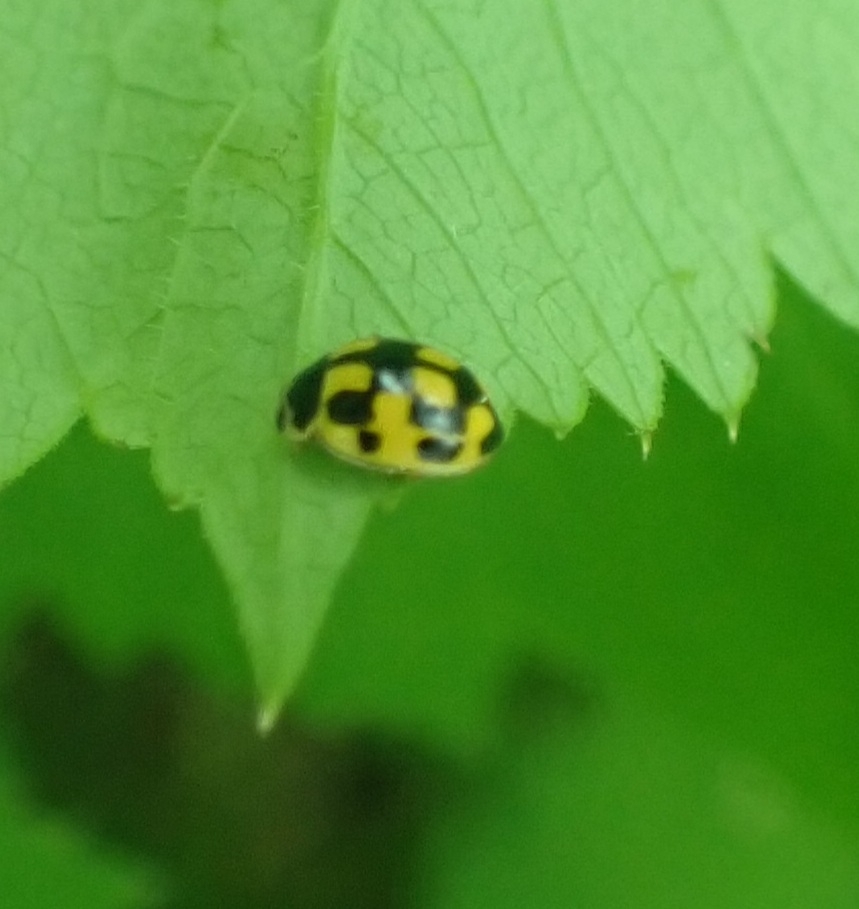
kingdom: Animalia
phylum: Arthropoda
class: Insecta
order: Coleoptera
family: Coccinellidae
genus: Propylaea
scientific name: Propylaea quatuordecimpunctata
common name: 14-spotted ladybird beetle
